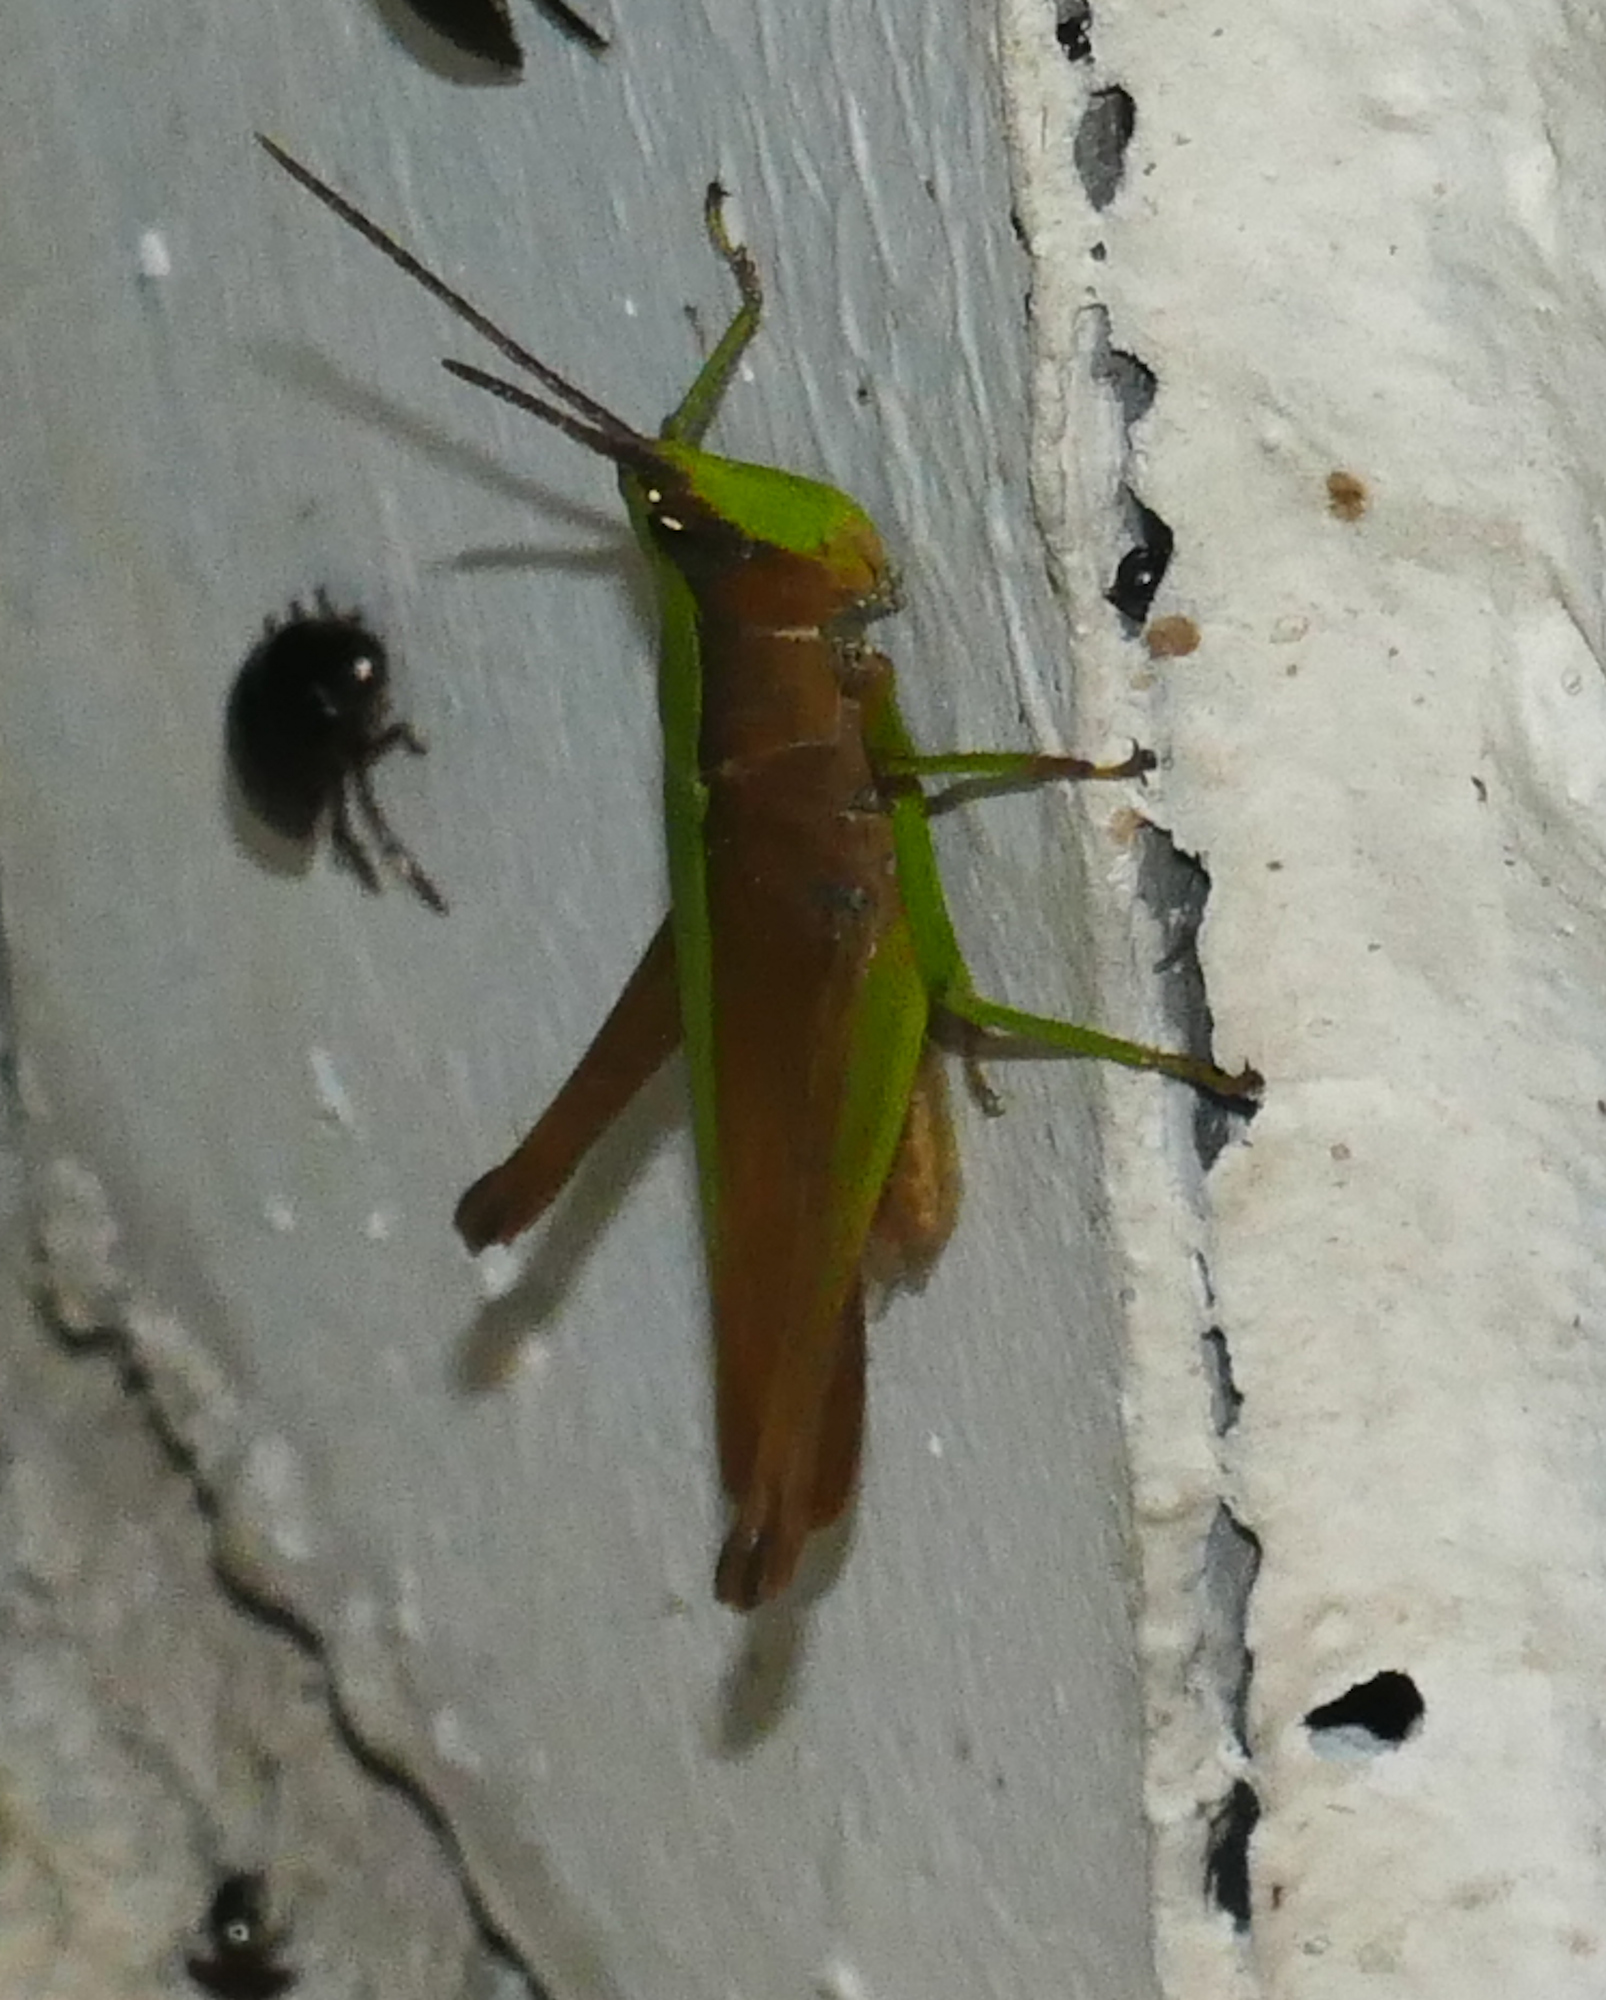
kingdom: Animalia
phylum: Arthropoda
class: Insecta
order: Orthoptera
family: Acrididae
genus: Metaleptea
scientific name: Metaleptea brevicornis
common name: Clipped-wing grasshopper
